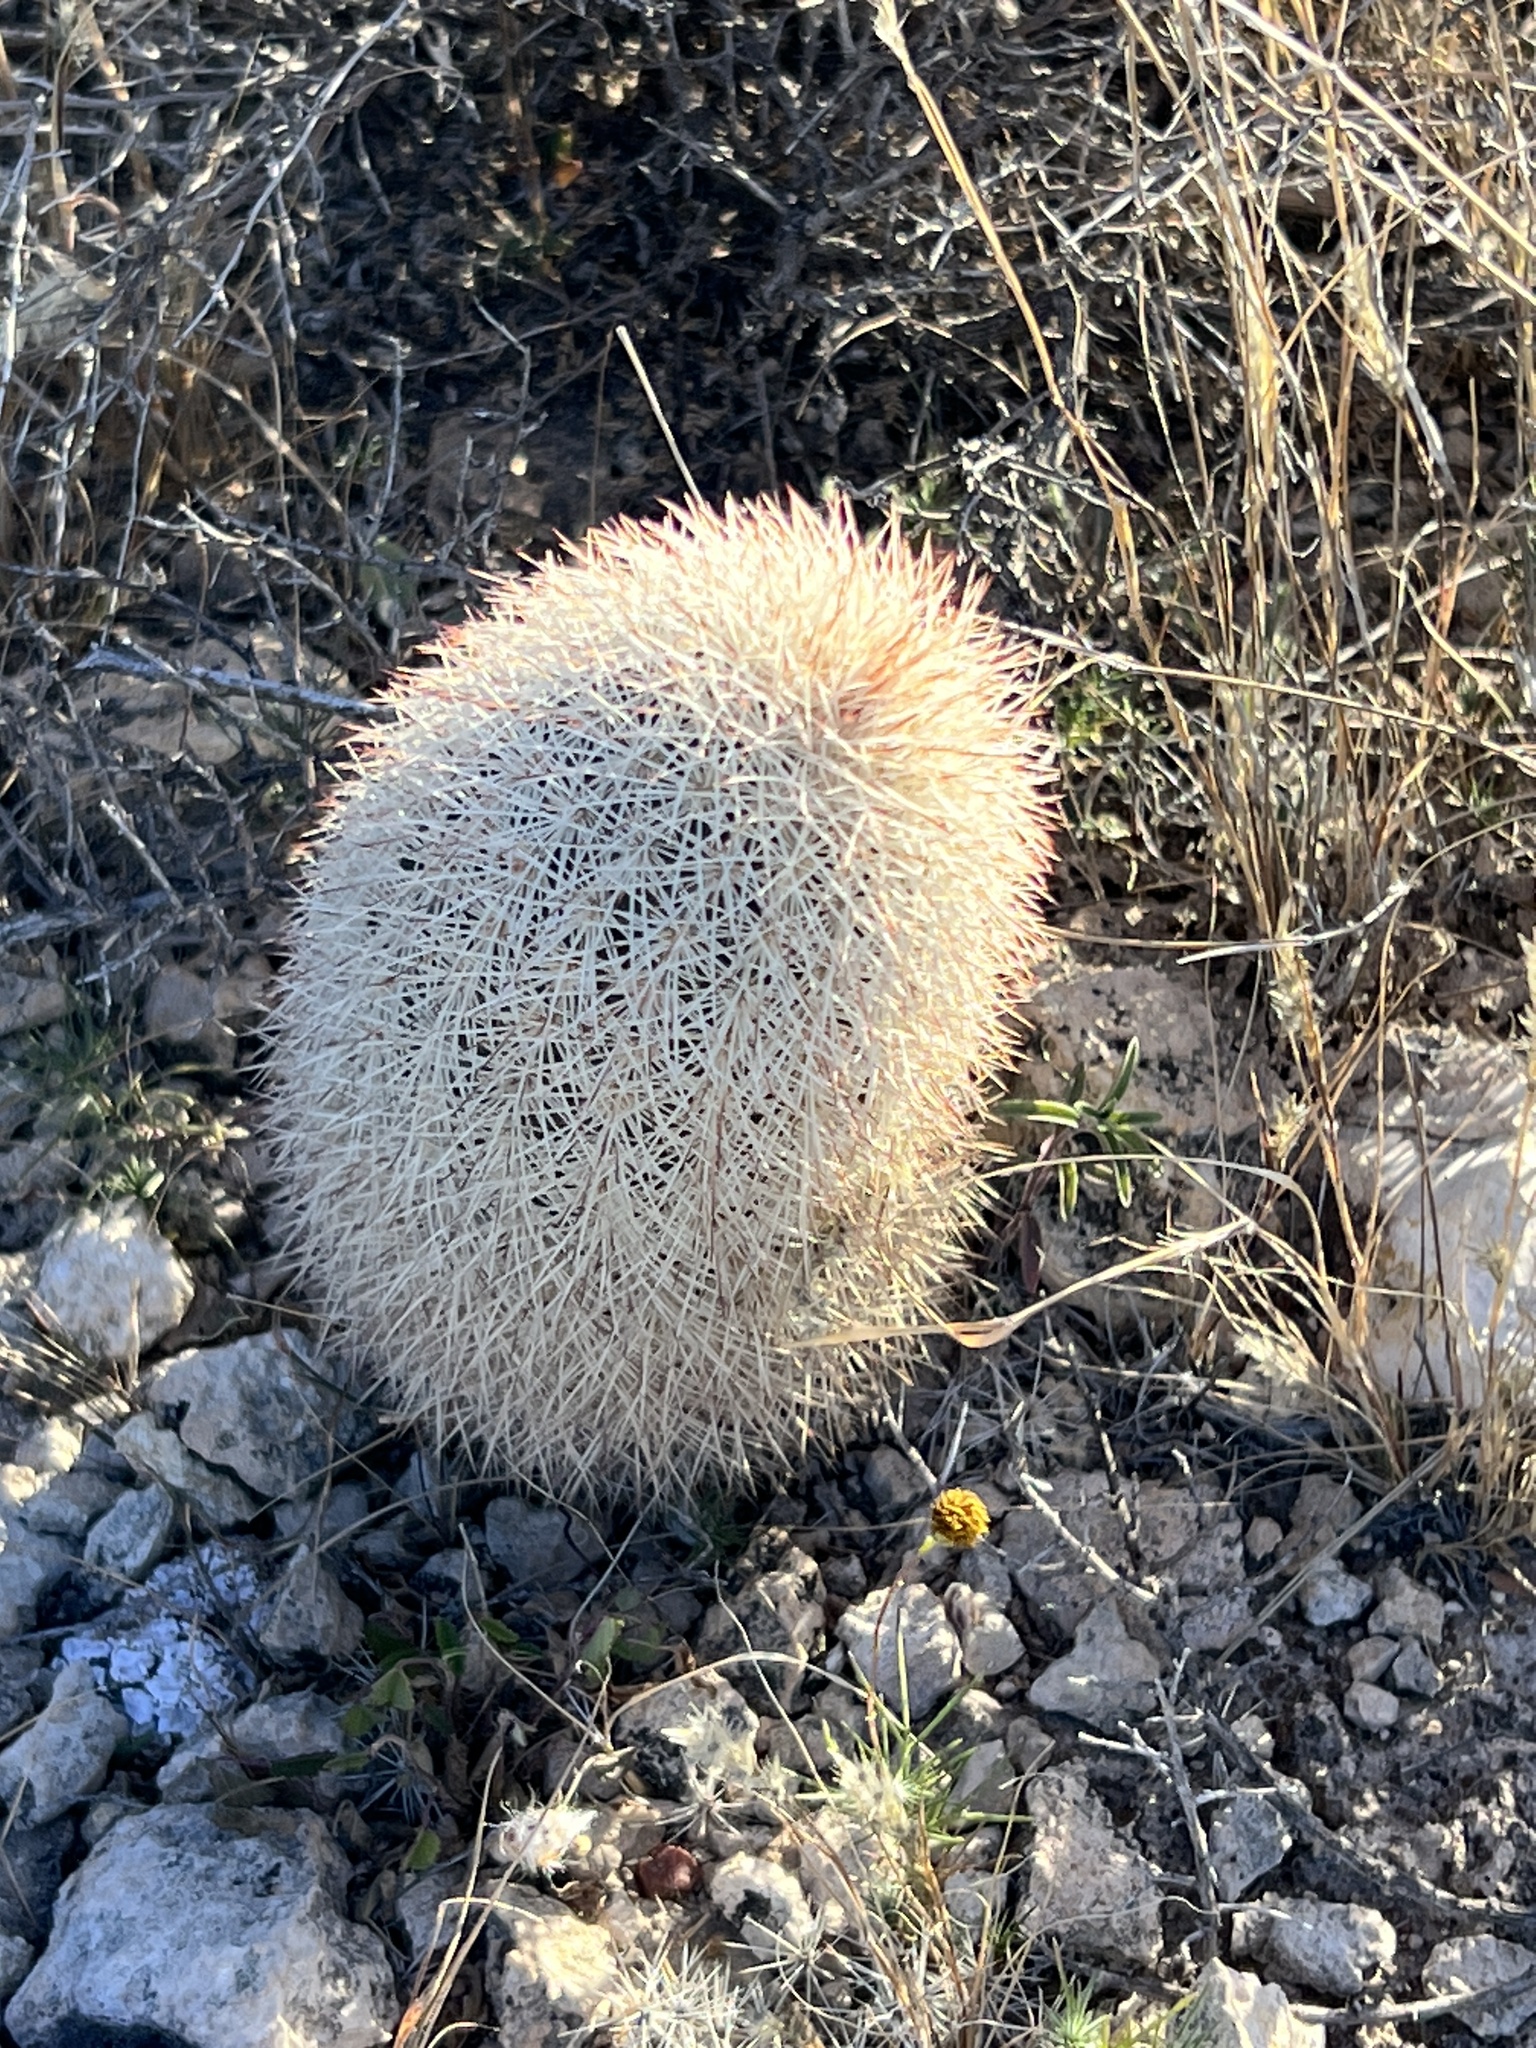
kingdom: Plantae
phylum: Tracheophyta
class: Magnoliopsida
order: Caryophyllales
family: Cactaceae
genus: Echinocereus
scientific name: Echinocereus dasyacanthus
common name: Spiny hedgehog cactus
